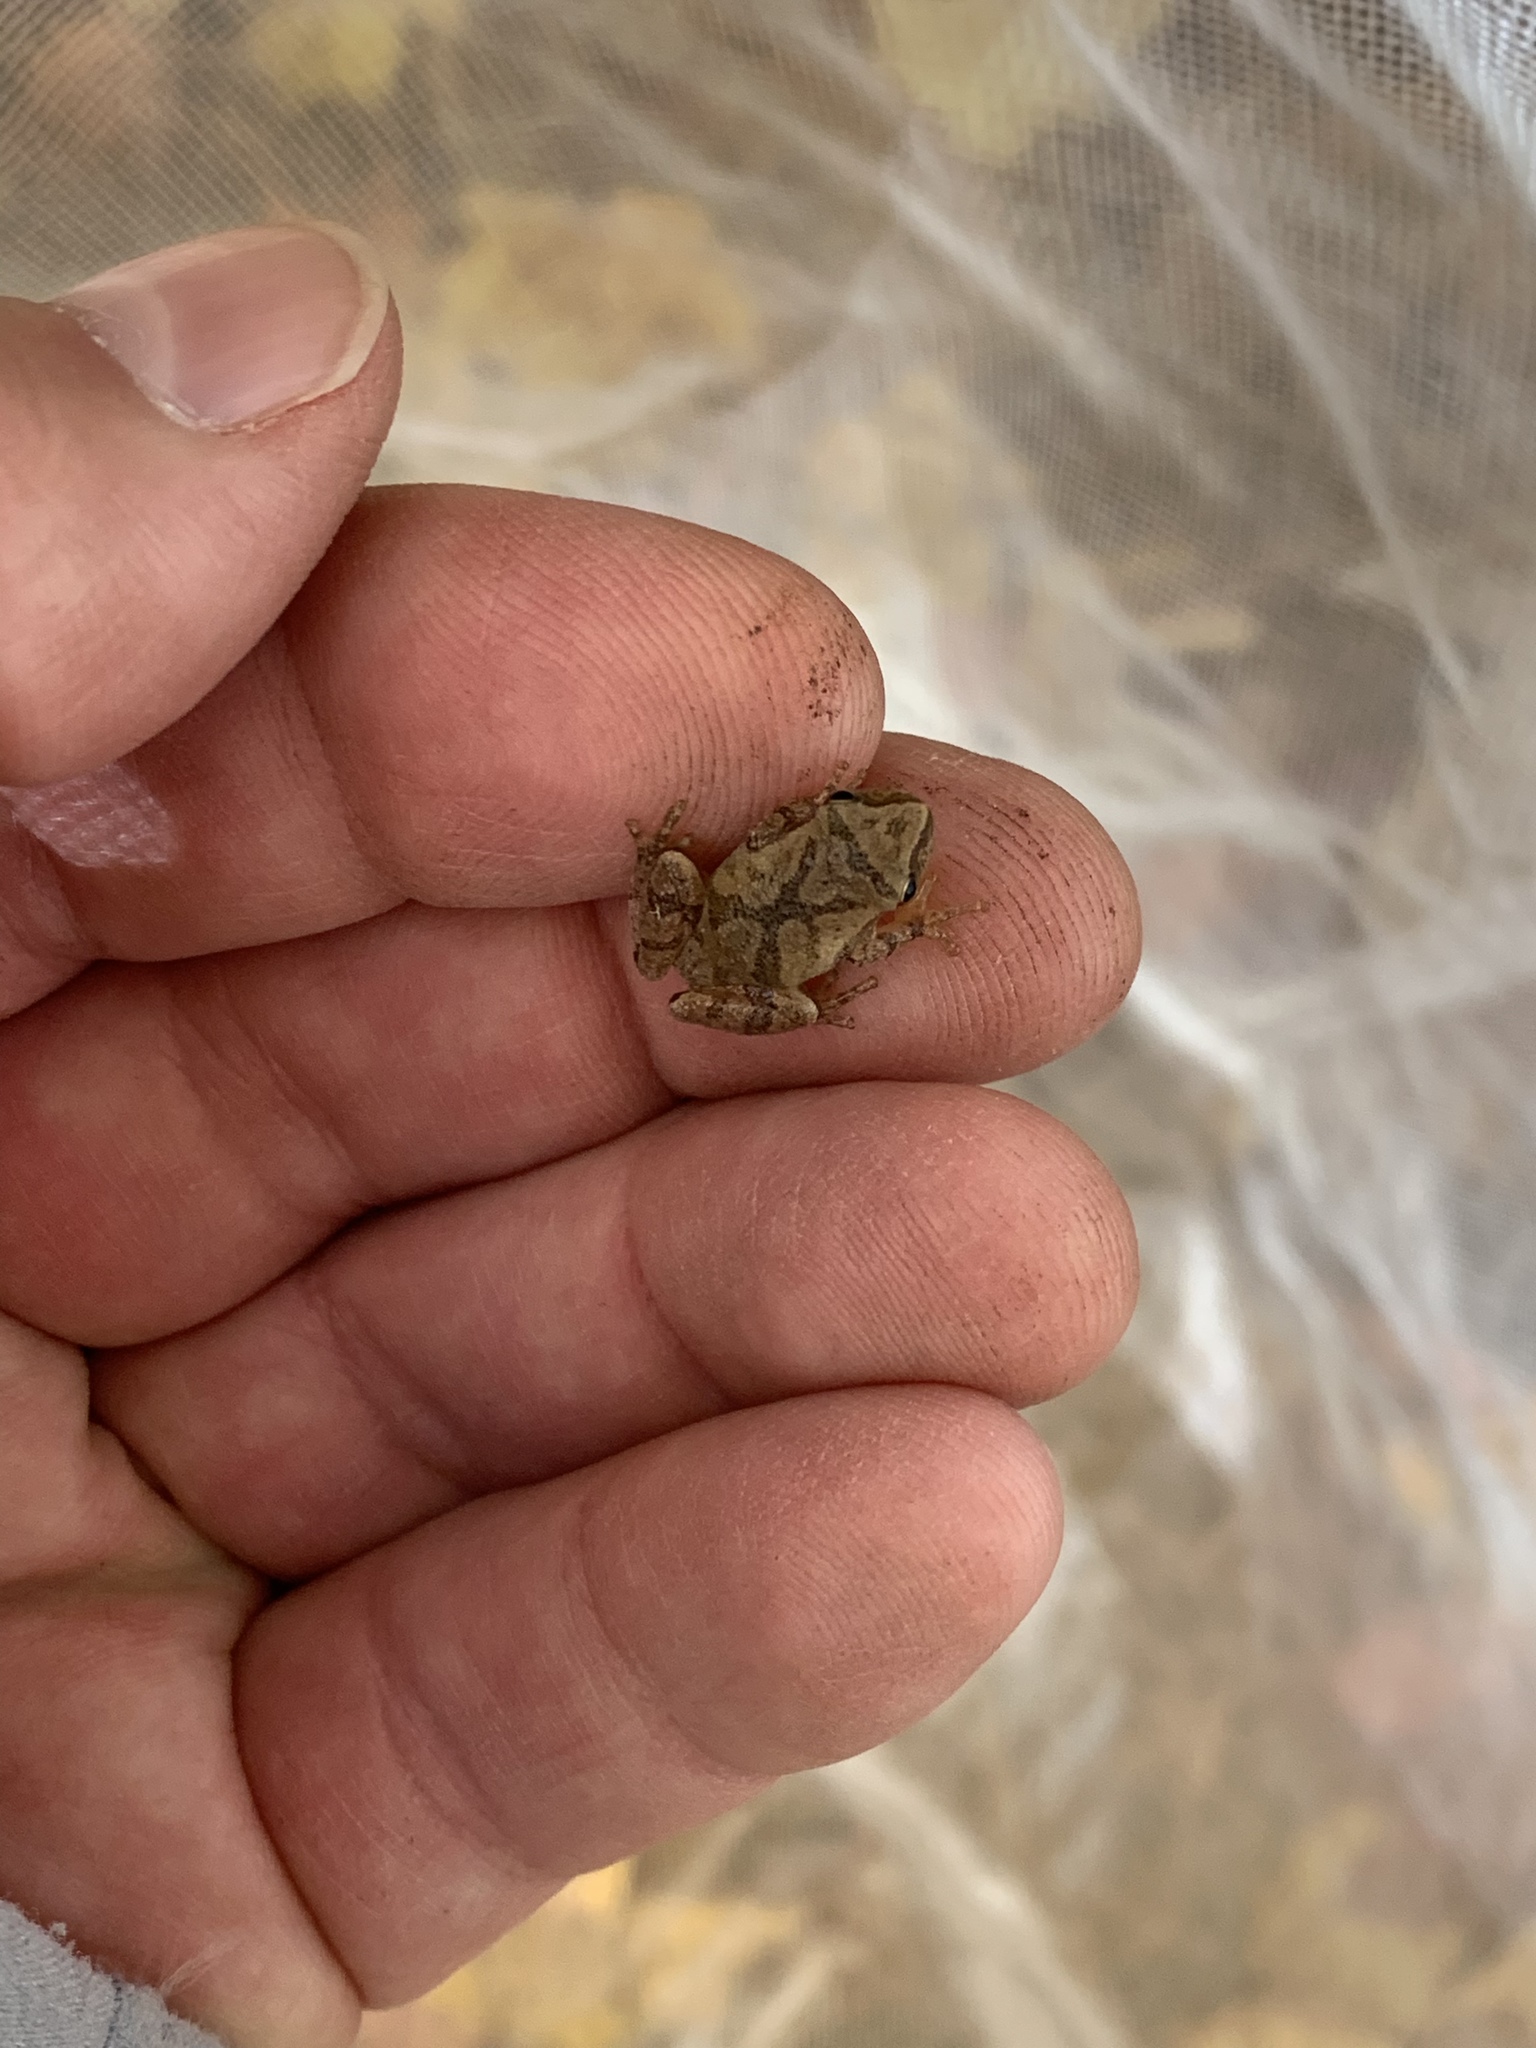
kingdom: Animalia
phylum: Chordata
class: Amphibia
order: Anura
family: Hylidae
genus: Pseudacris
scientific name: Pseudacris crucifer
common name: Spring peeper
